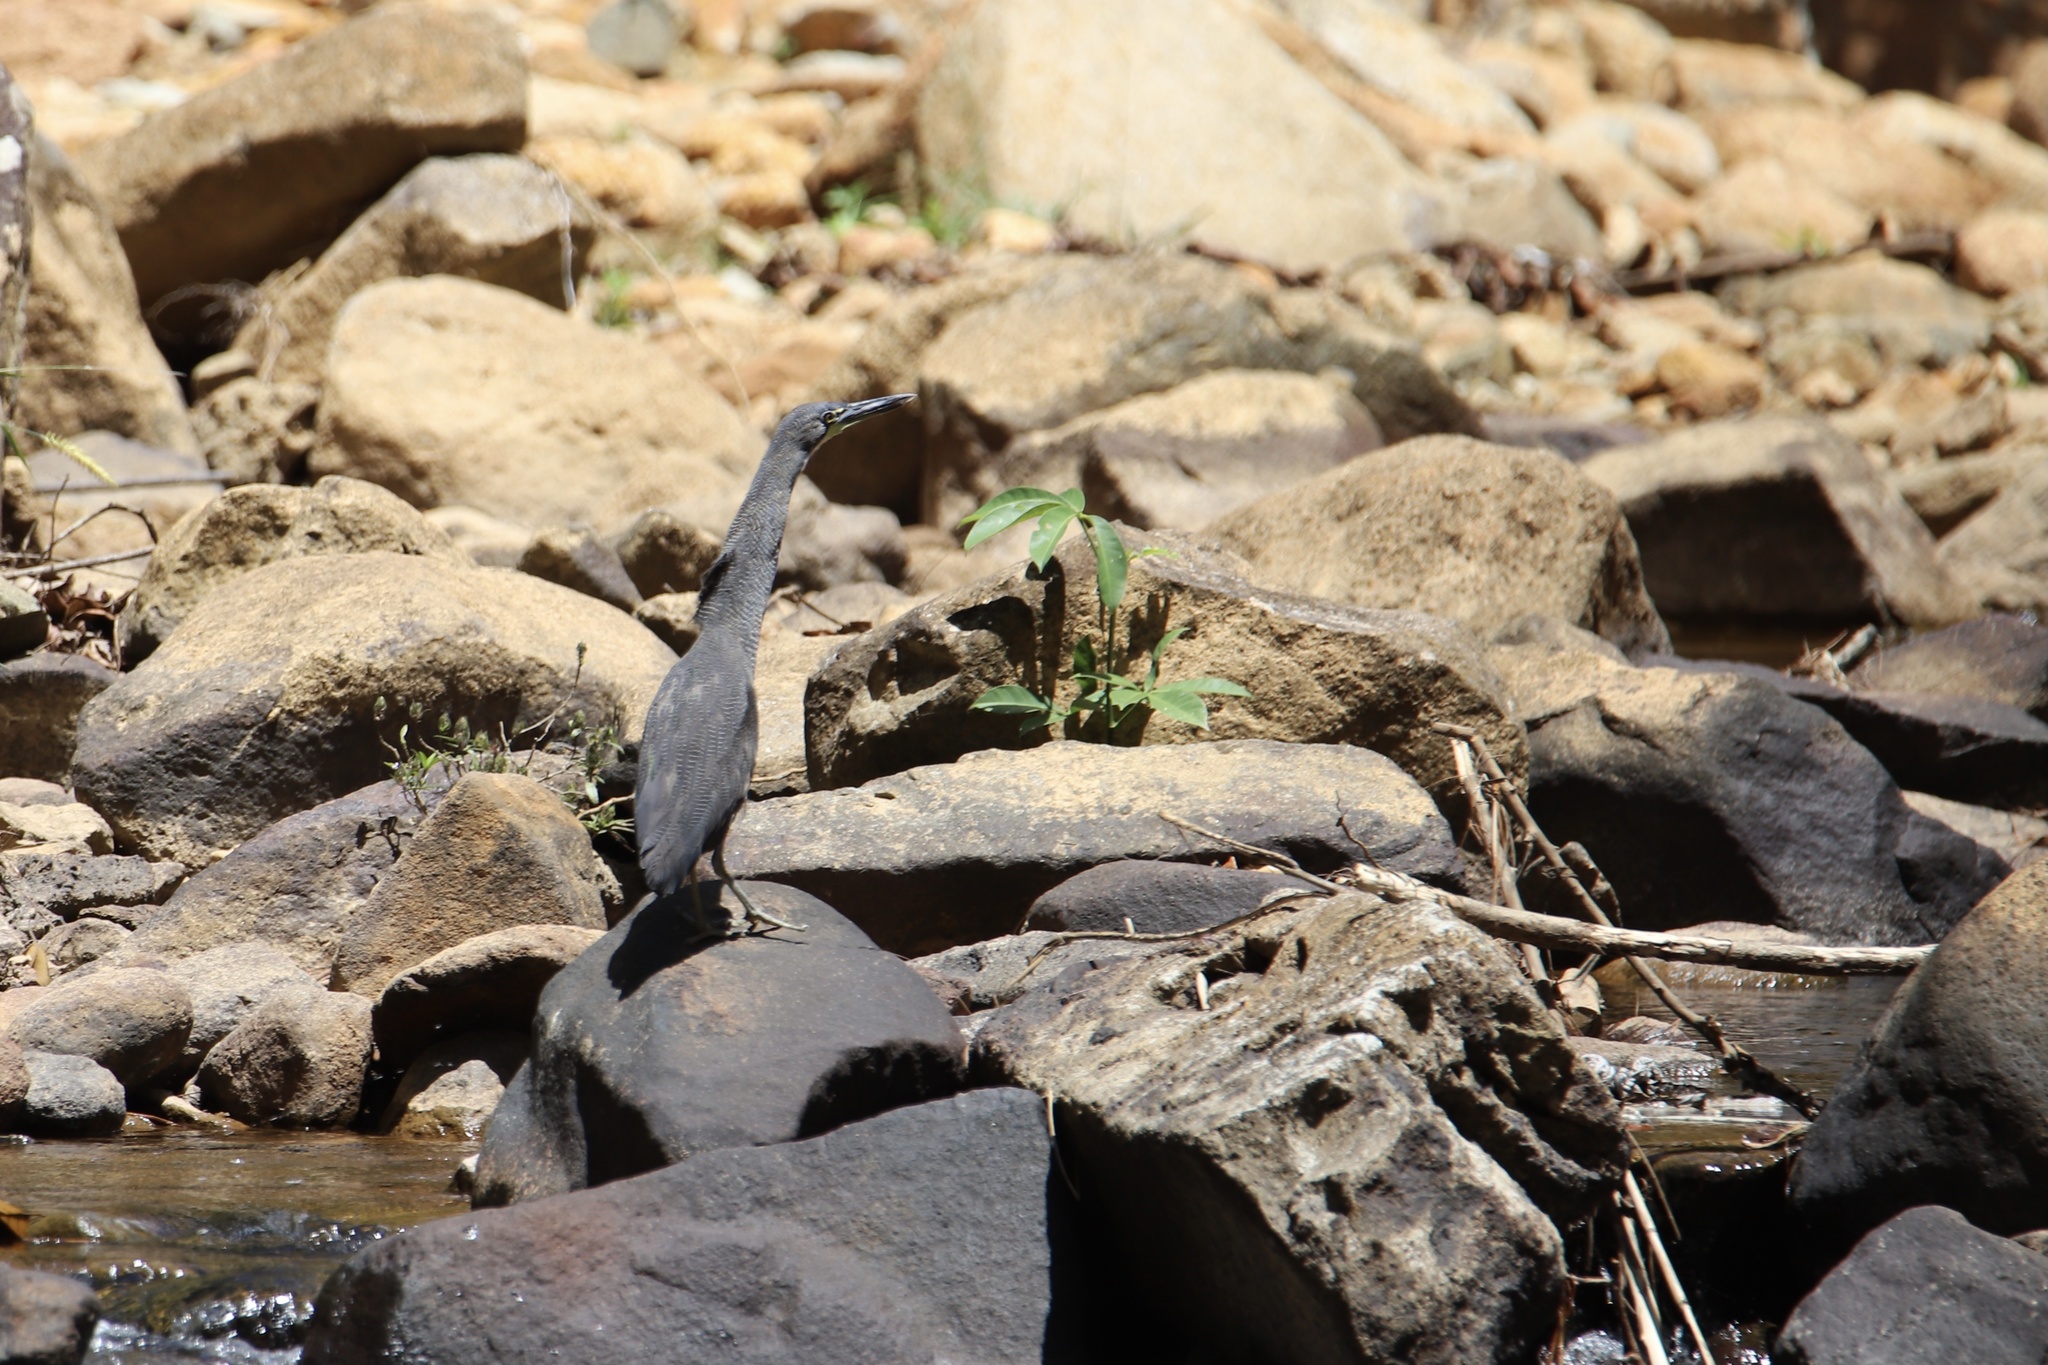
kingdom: Animalia
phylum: Chordata
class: Aves
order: Pelecaniformes
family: Ardeidae
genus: Tigrisoma
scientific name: Tigrisoma fasciatum
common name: Fasciated tiger-heron
